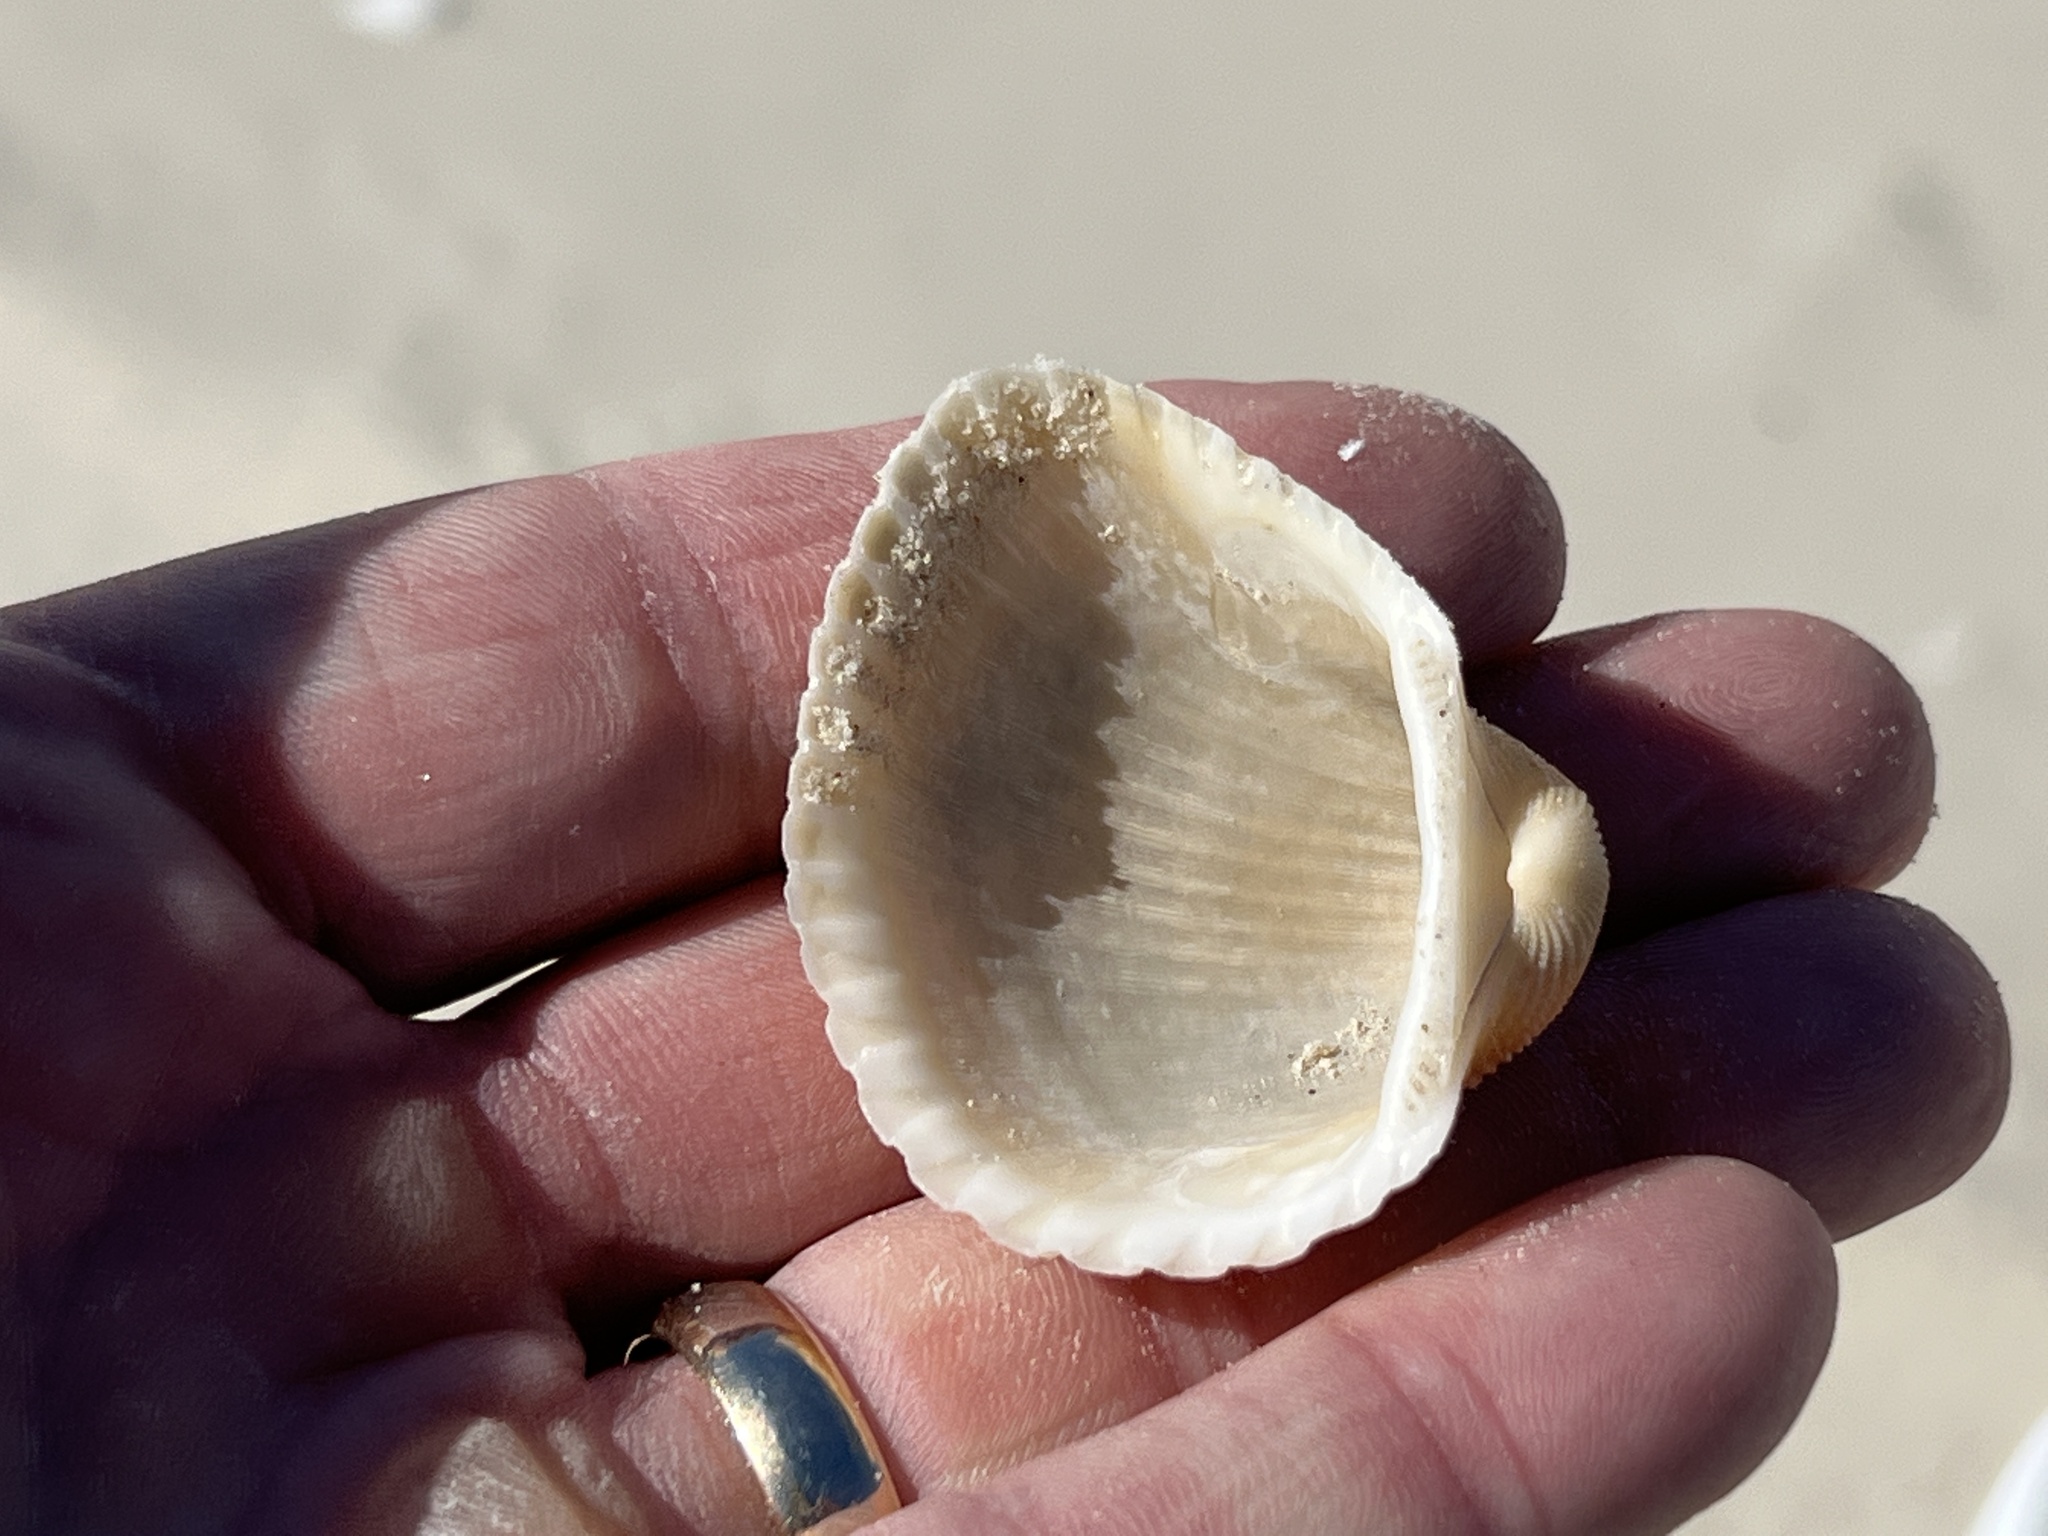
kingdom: Animalia
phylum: Mollusca
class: Bivalvia
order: Arcida
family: Arcidae
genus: Anadara
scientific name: Anadara brasiliana
